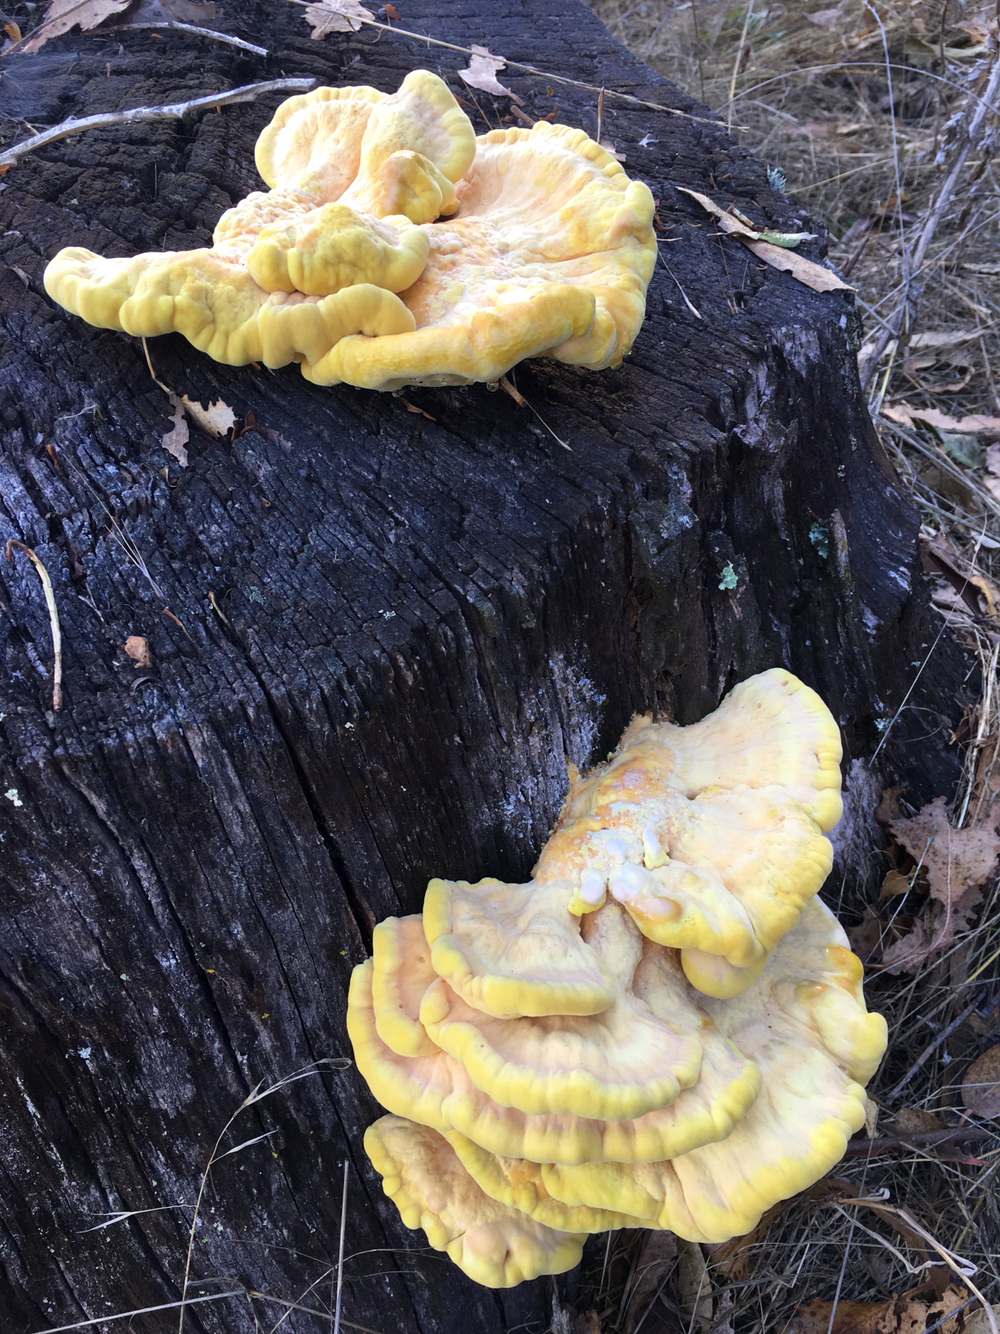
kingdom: Fungi
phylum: Basidiomycota
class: Agaricomycetes
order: Polyporales
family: Laetiporaceae
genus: Laetiporus
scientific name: Laetiporus gilbertsonii
